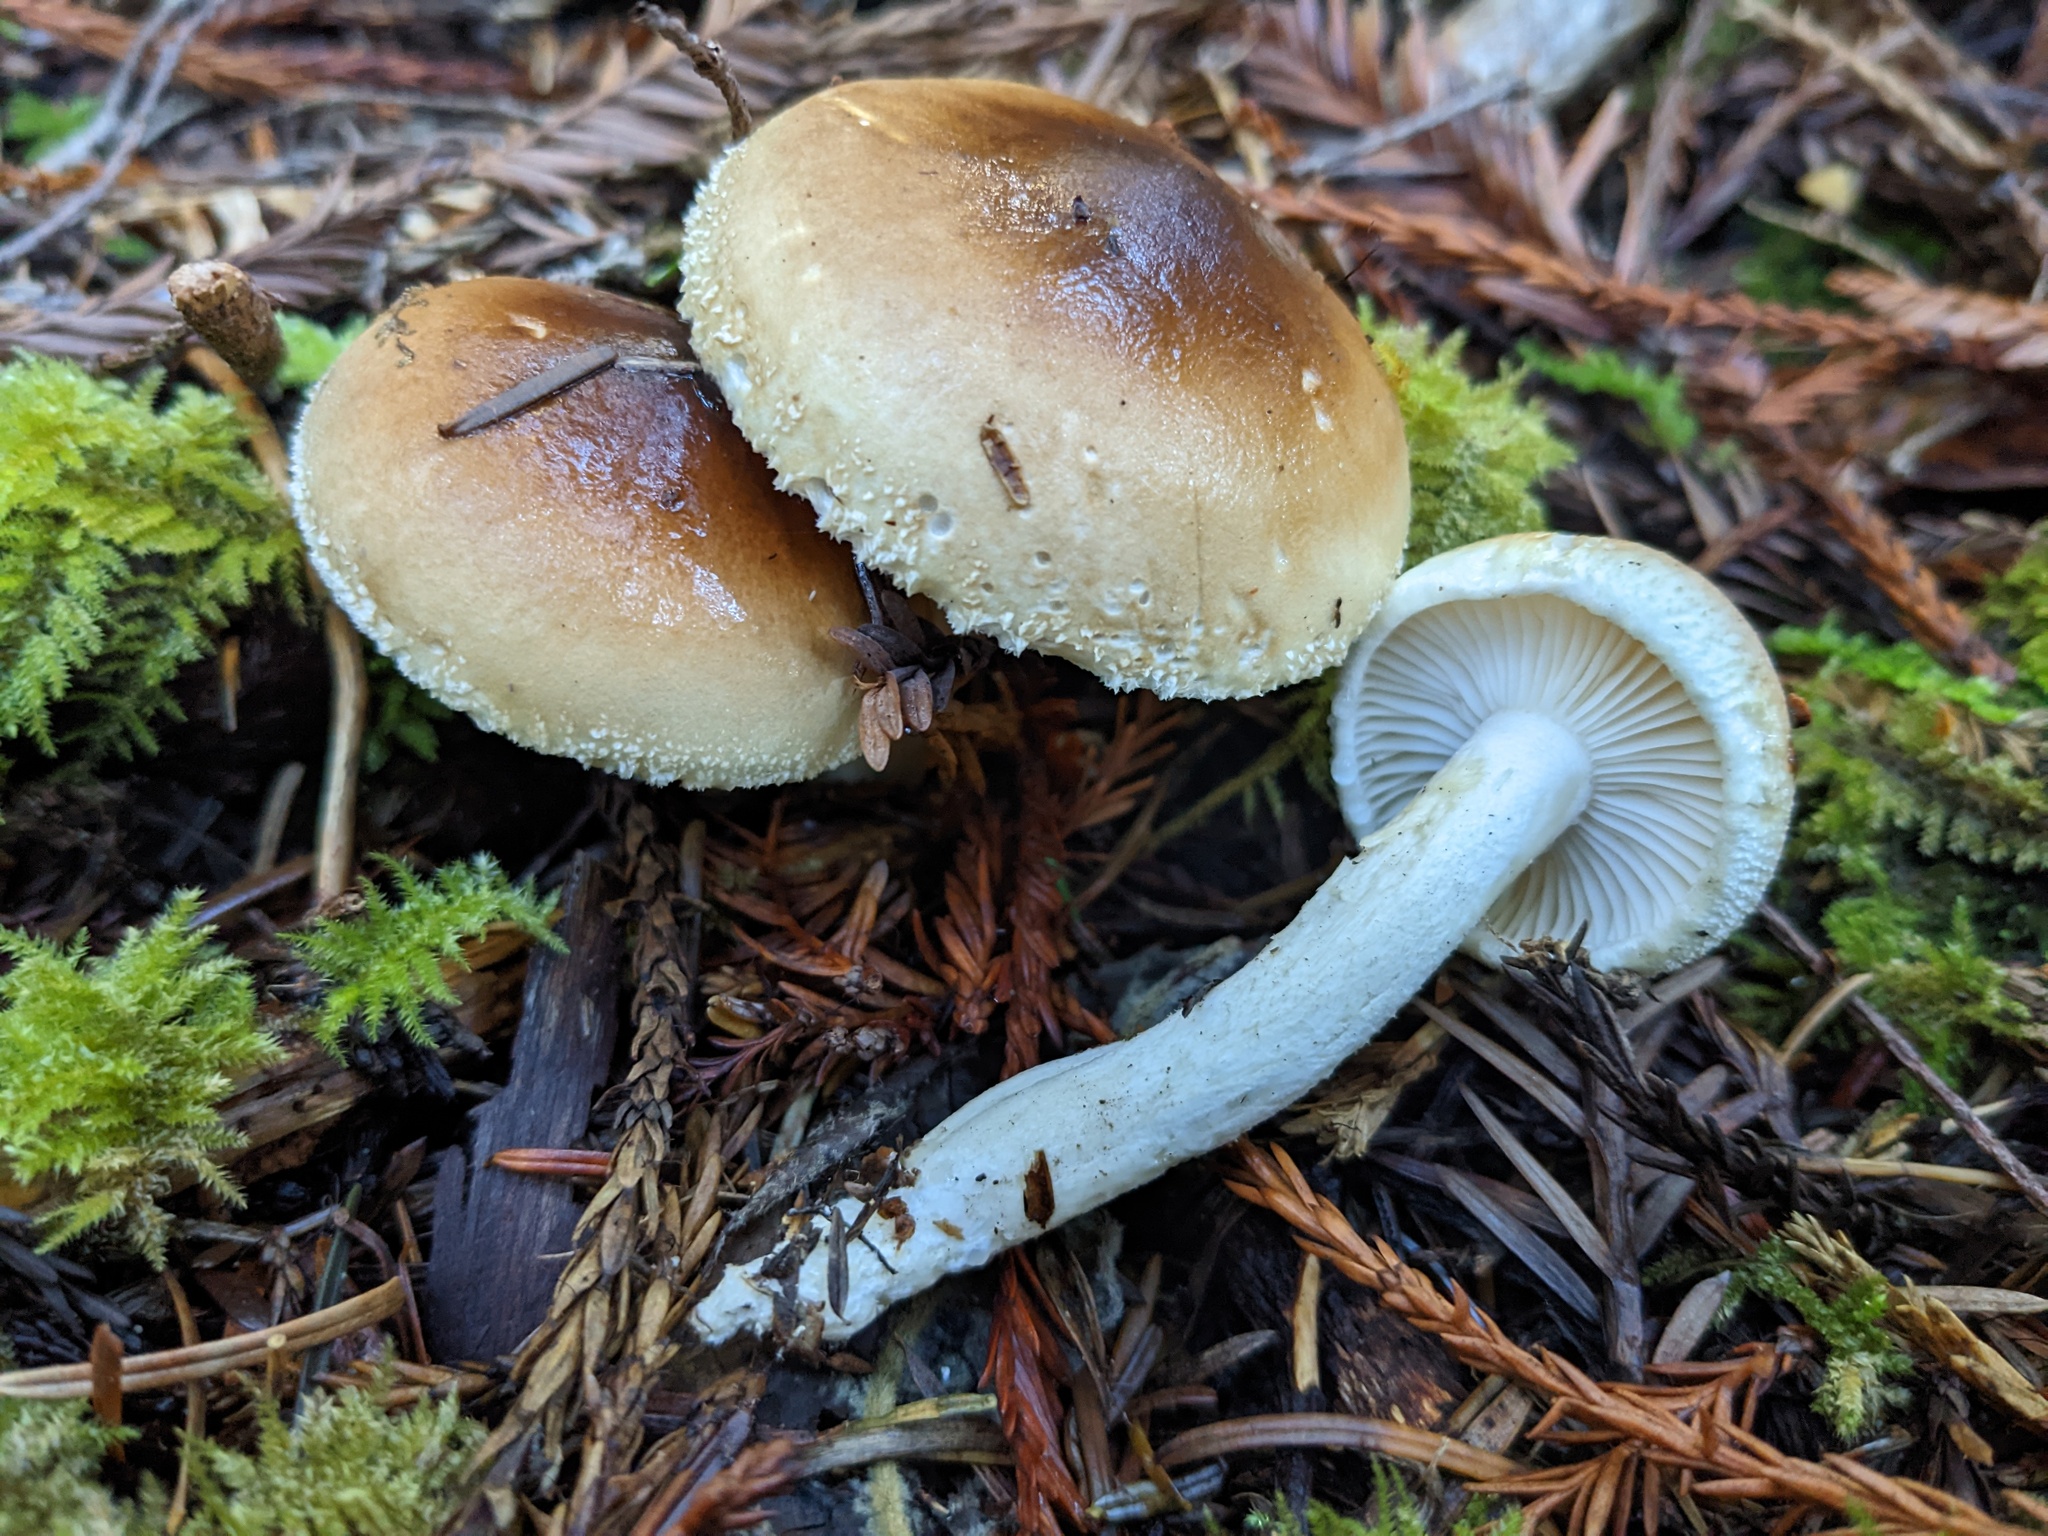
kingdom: Fungi
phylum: Basidiomycota
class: Agaricomycetes
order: Agaricales
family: Hygrophoraceae
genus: Hygrophorus
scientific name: Hygrophorus bakerensis
